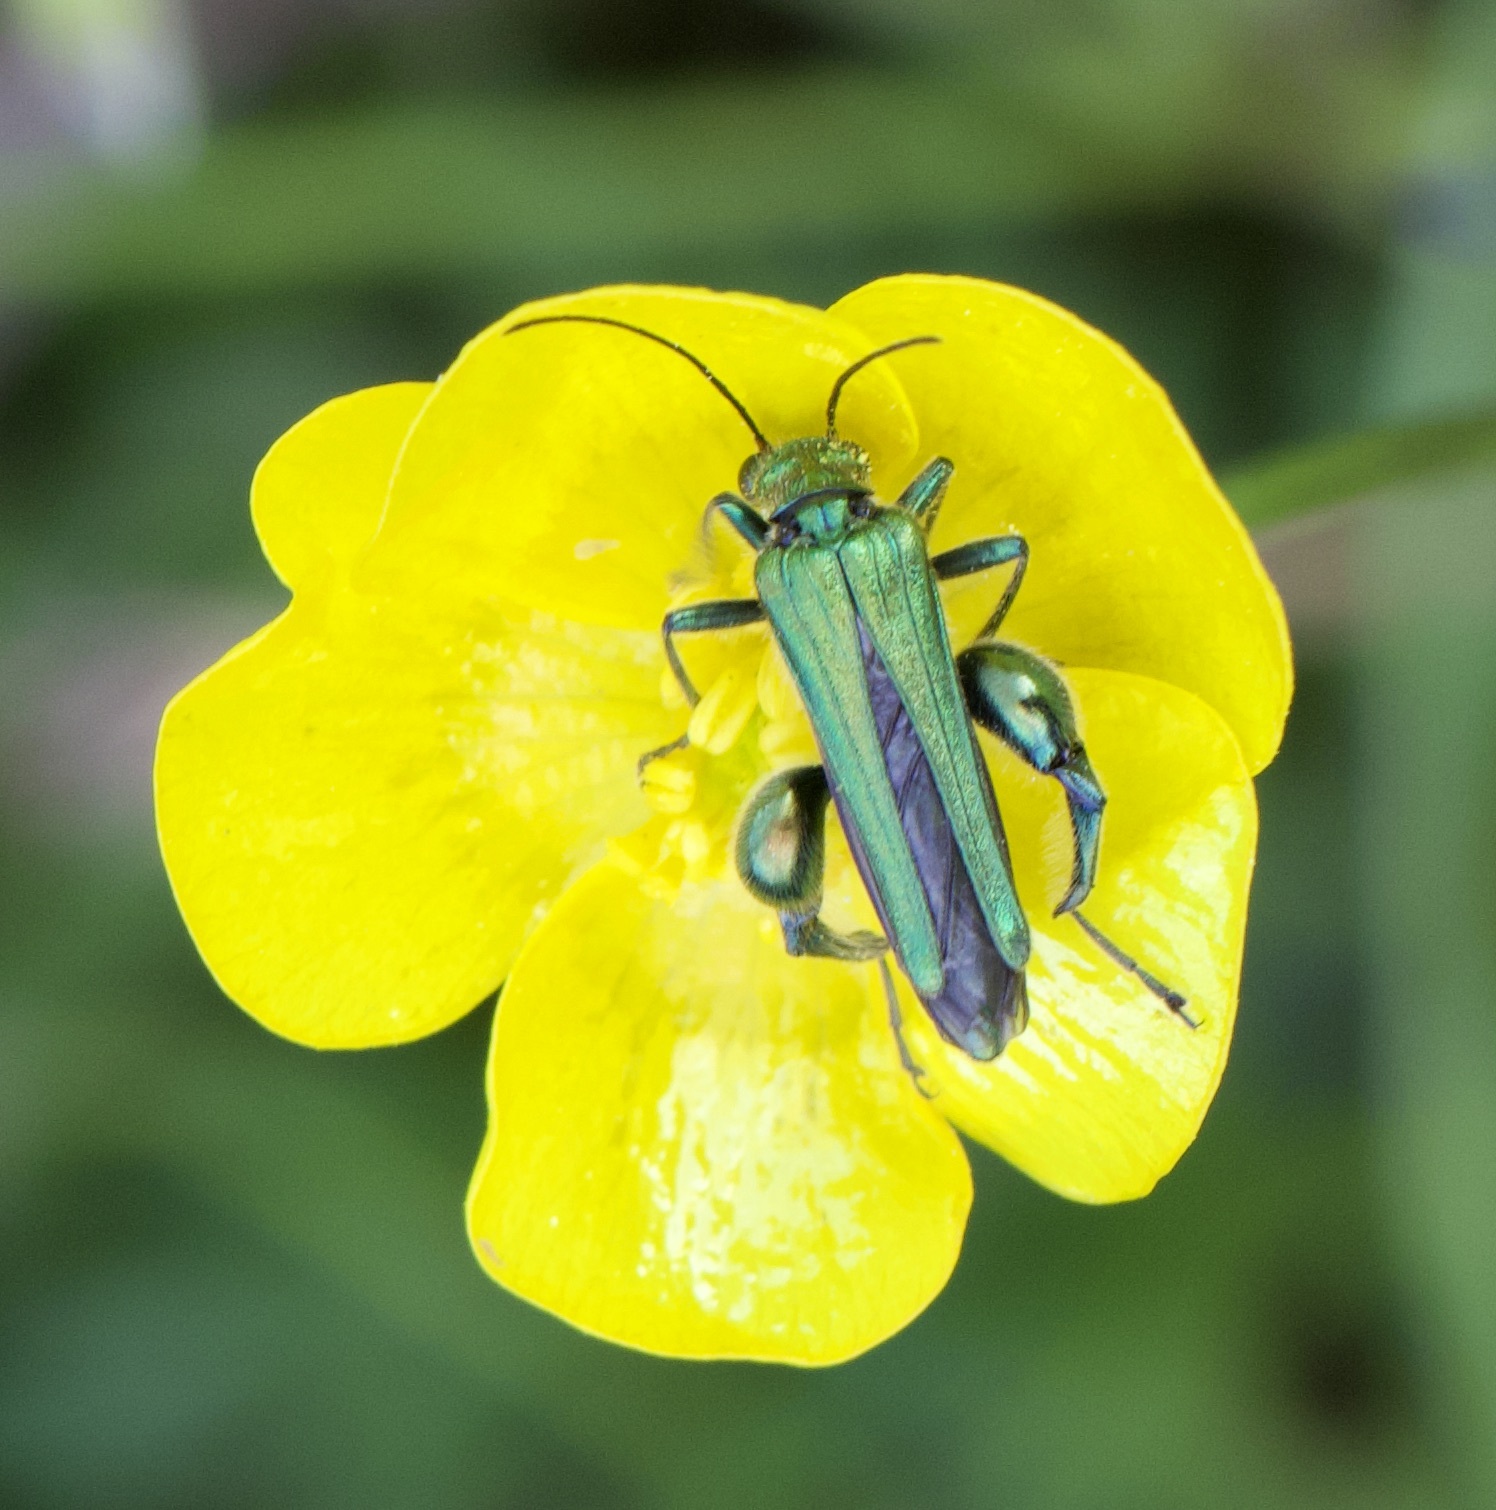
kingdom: Animalia
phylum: Arthropoda
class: Insecta
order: Coleoptera
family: Oedemeridae
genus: Oedemera
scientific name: Oedemera nobilis
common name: Swollen-thighed beetle
